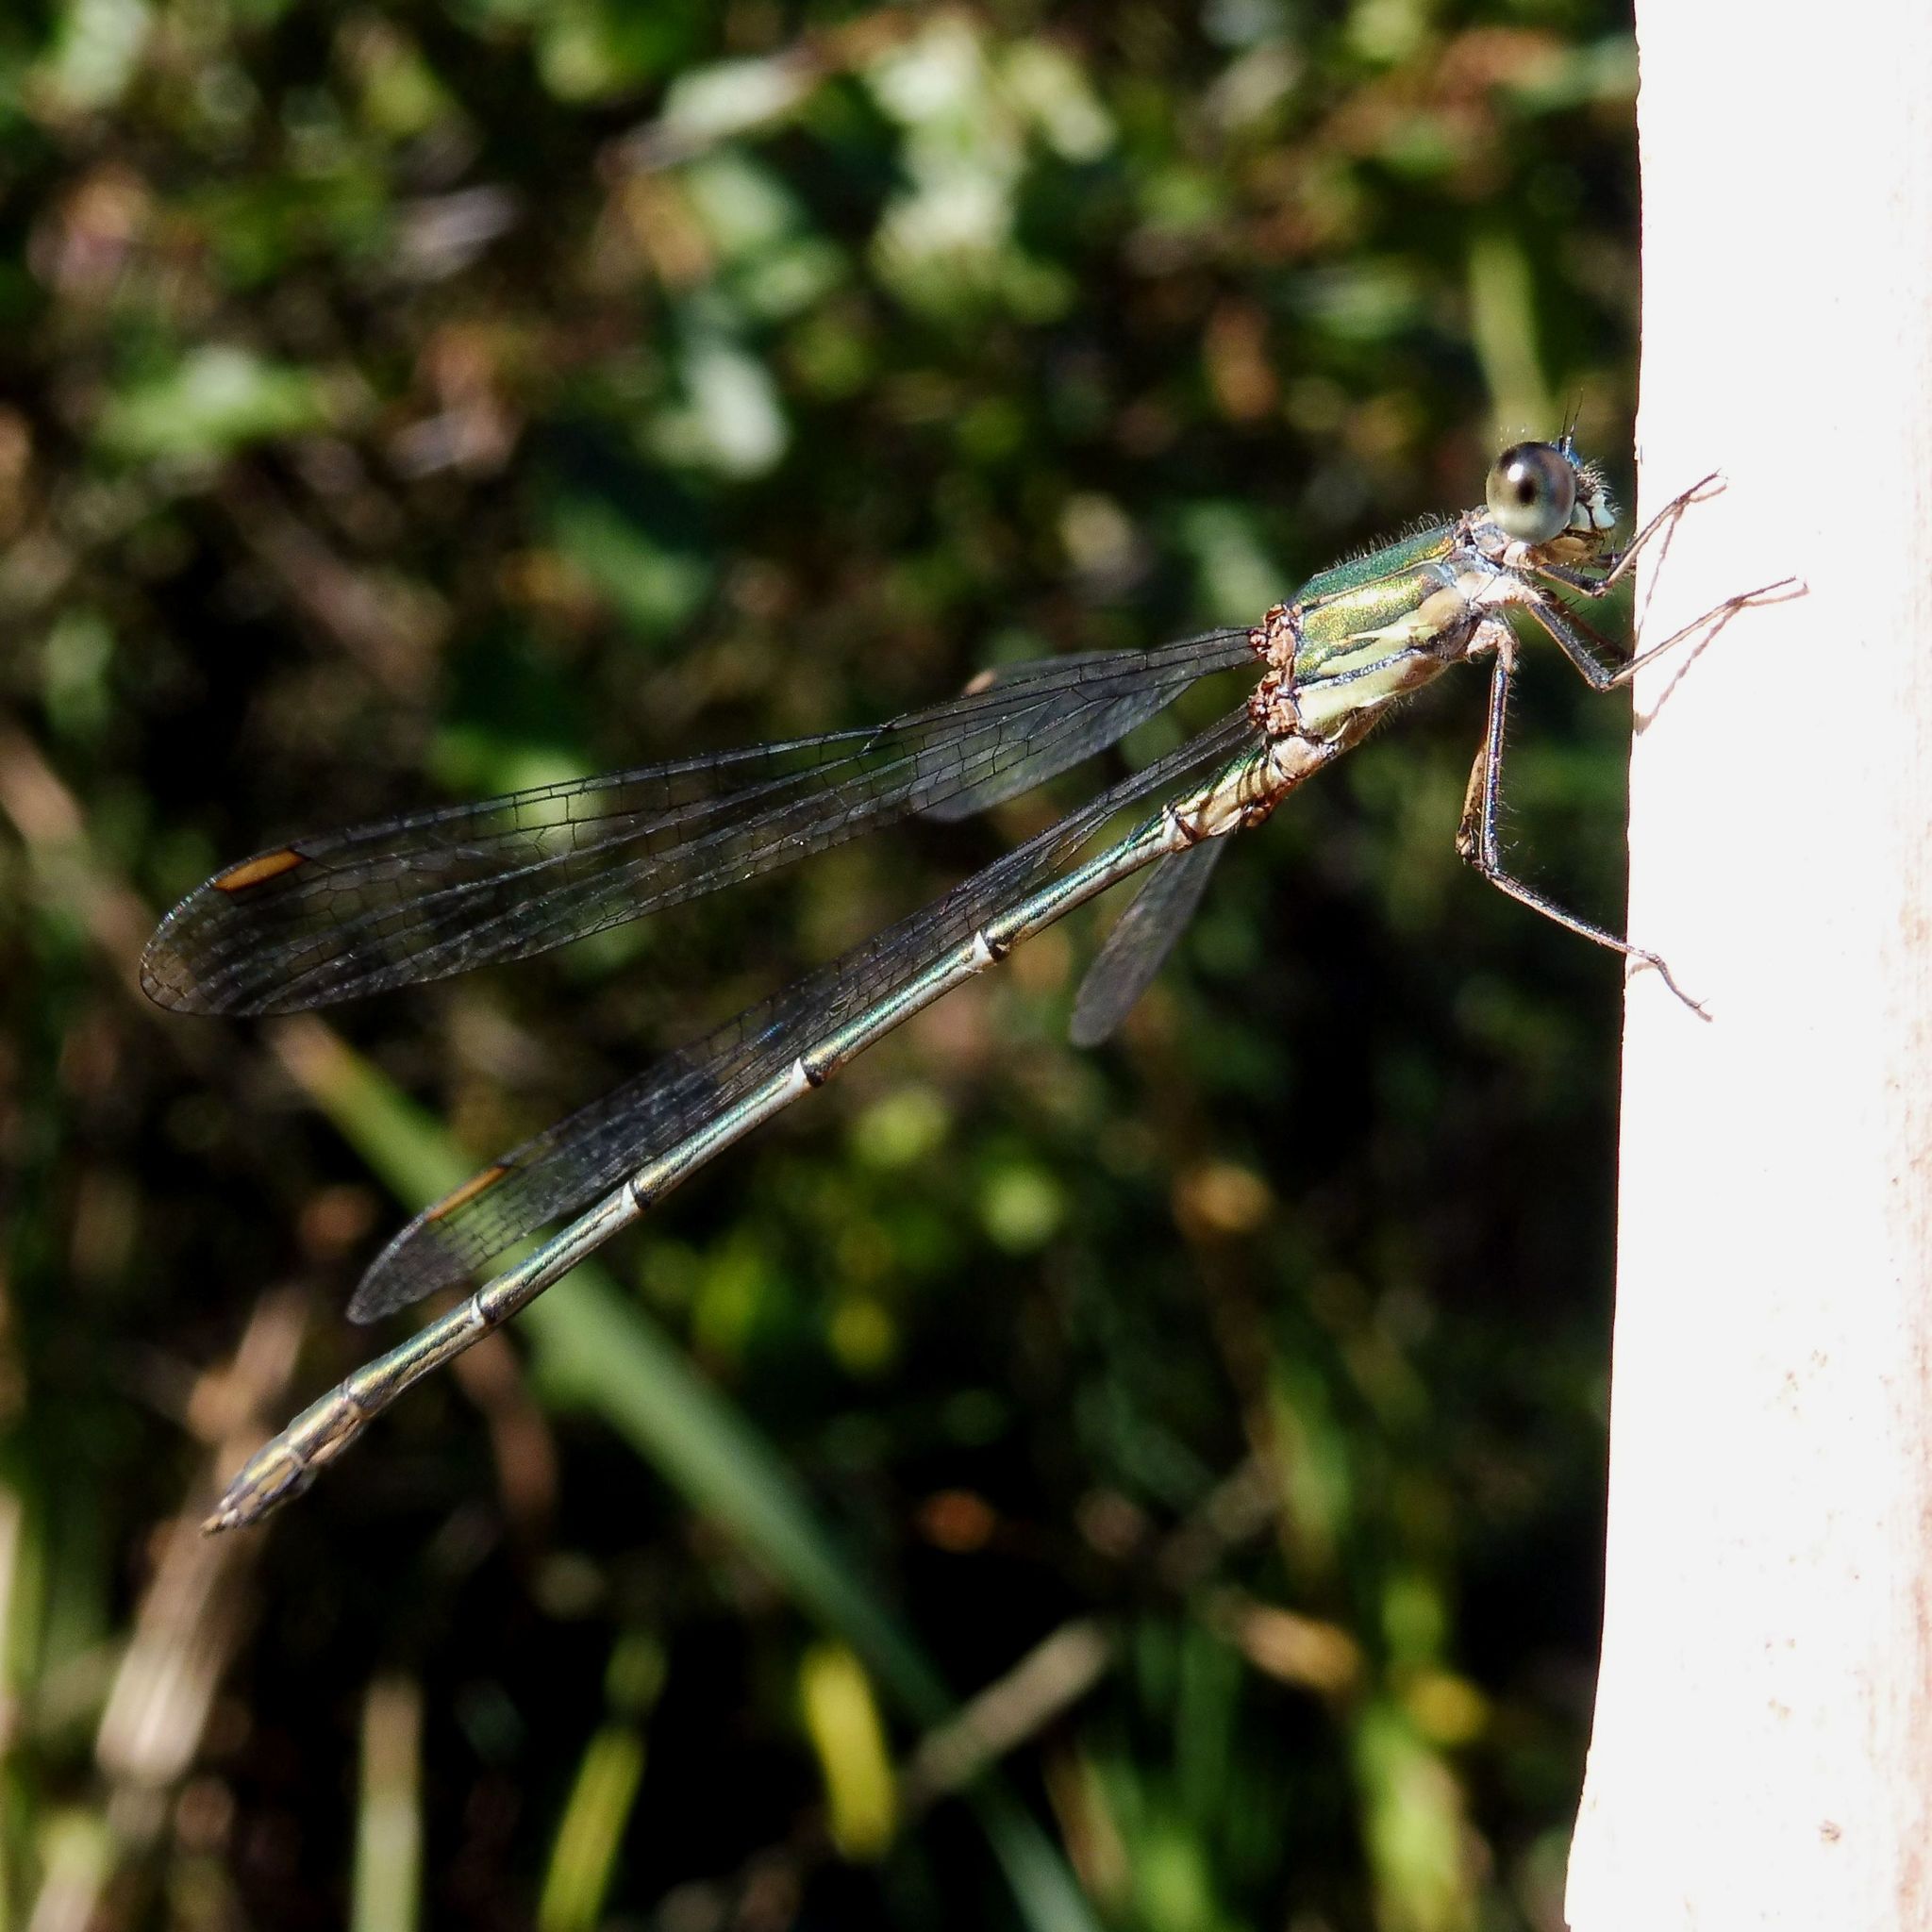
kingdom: Animalia
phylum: Arthropoda
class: Insecta
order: Odonata
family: Lestidae
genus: Chalcolestes
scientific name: Chalcolestes viridis
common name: Green emerald damselfly
